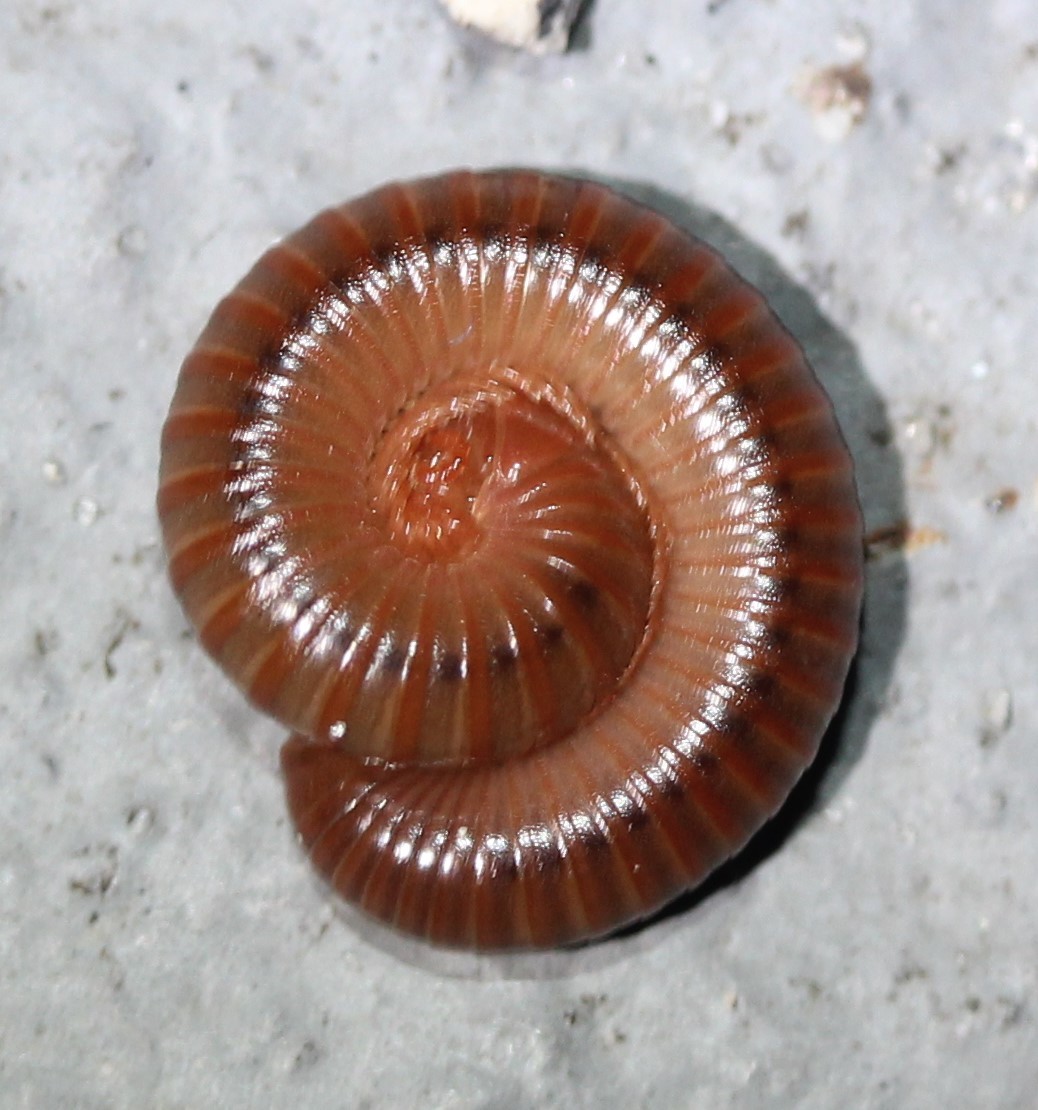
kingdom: Animalia
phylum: Arthropoda
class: Diplopoda
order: Spirobolida
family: Pachybolidae
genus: Trigoniulus
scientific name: Trigoniulus corallinus
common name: Millipede
